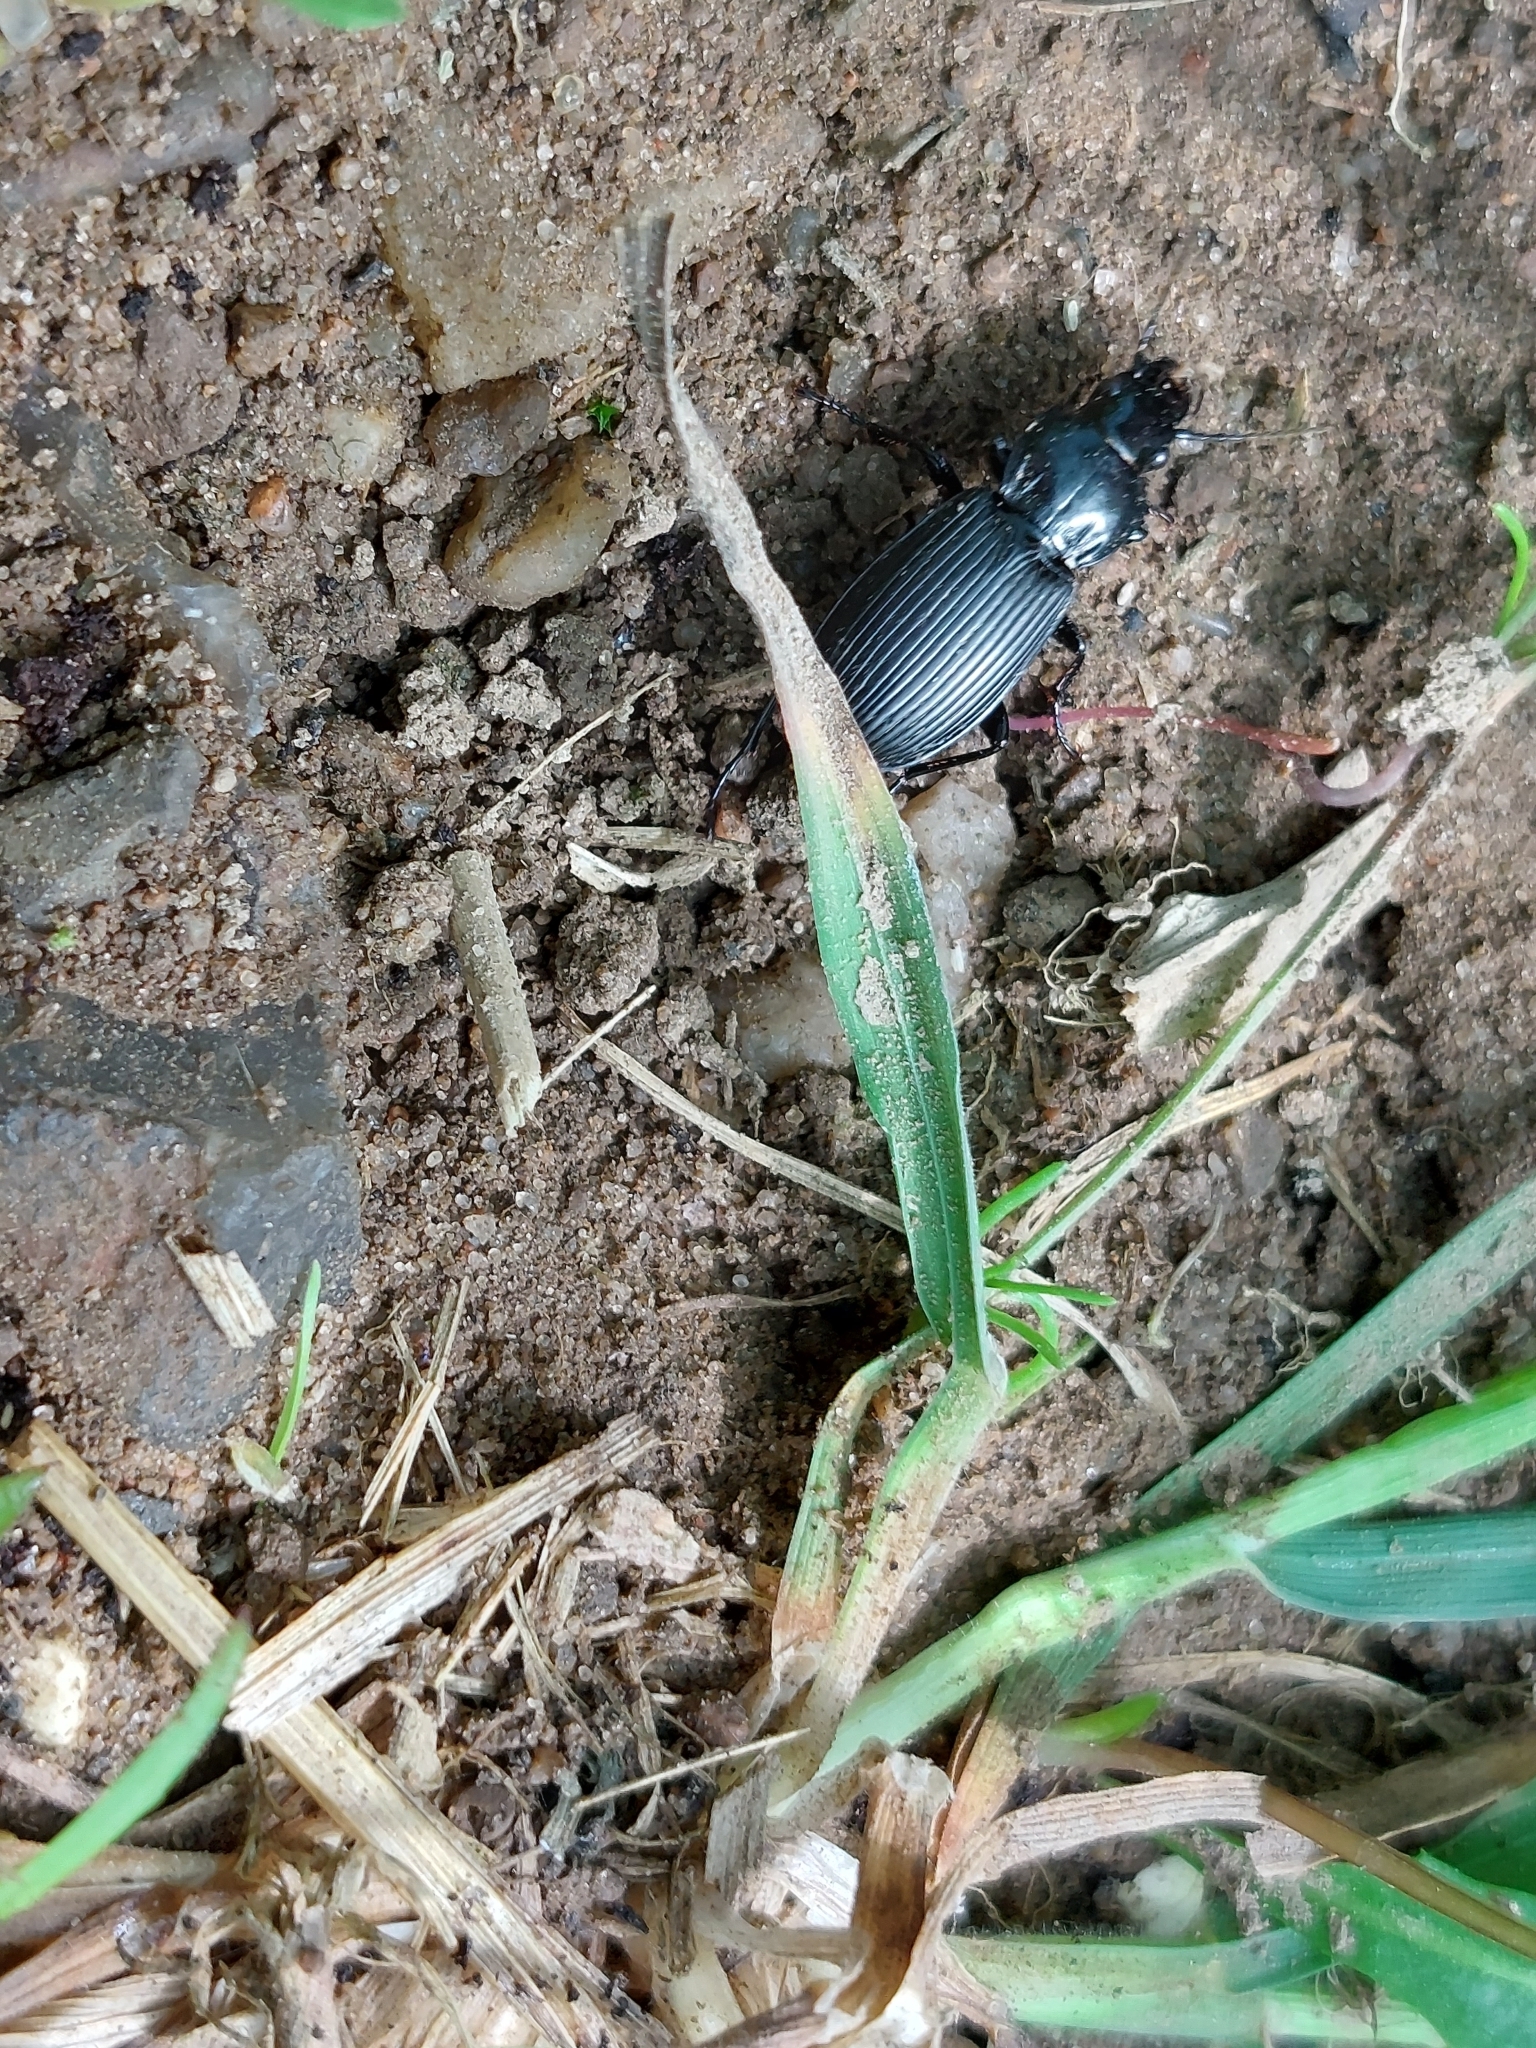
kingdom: Animalia
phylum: Arthropoda
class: Insecta
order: Coleoptera
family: Carabidae
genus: Pterostichus
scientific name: Pterostichus melanarius
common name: European dark harp ground beetle
